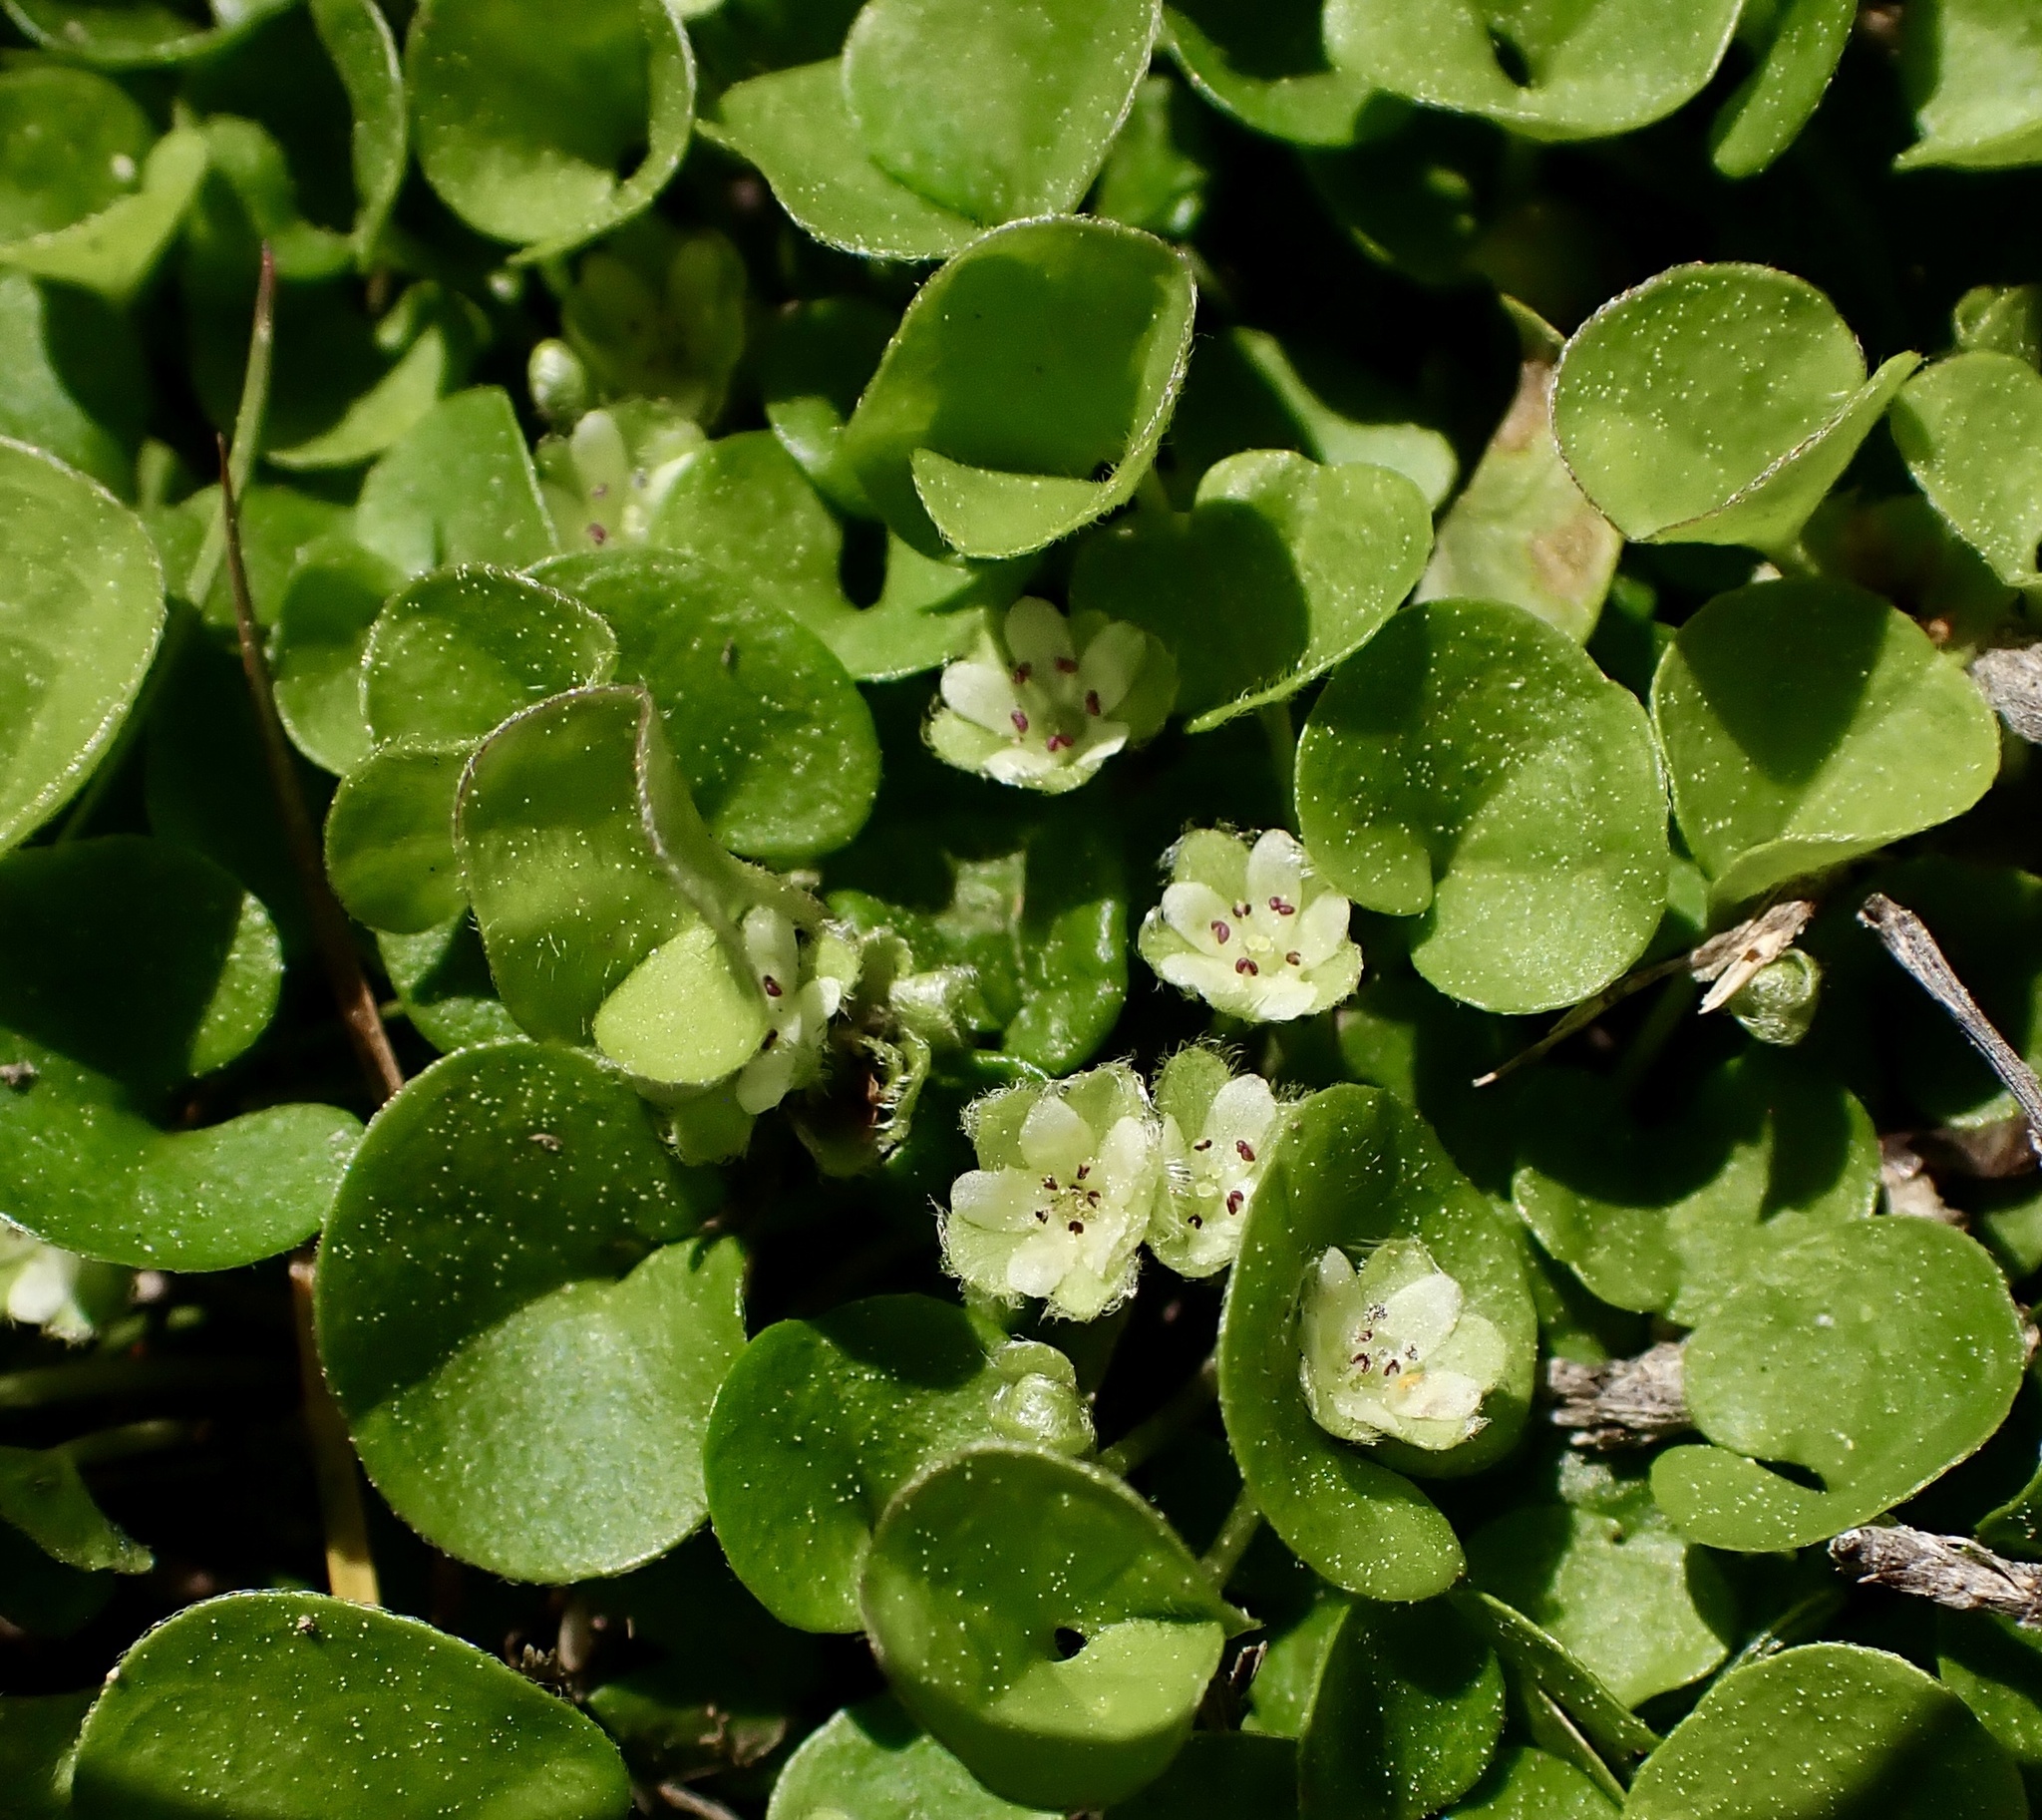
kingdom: Plantae
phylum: Tracheophyta
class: Magnoliopsida
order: Solanales
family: Convolvulaceae
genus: Dichondra
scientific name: Dichondra carolinensis
